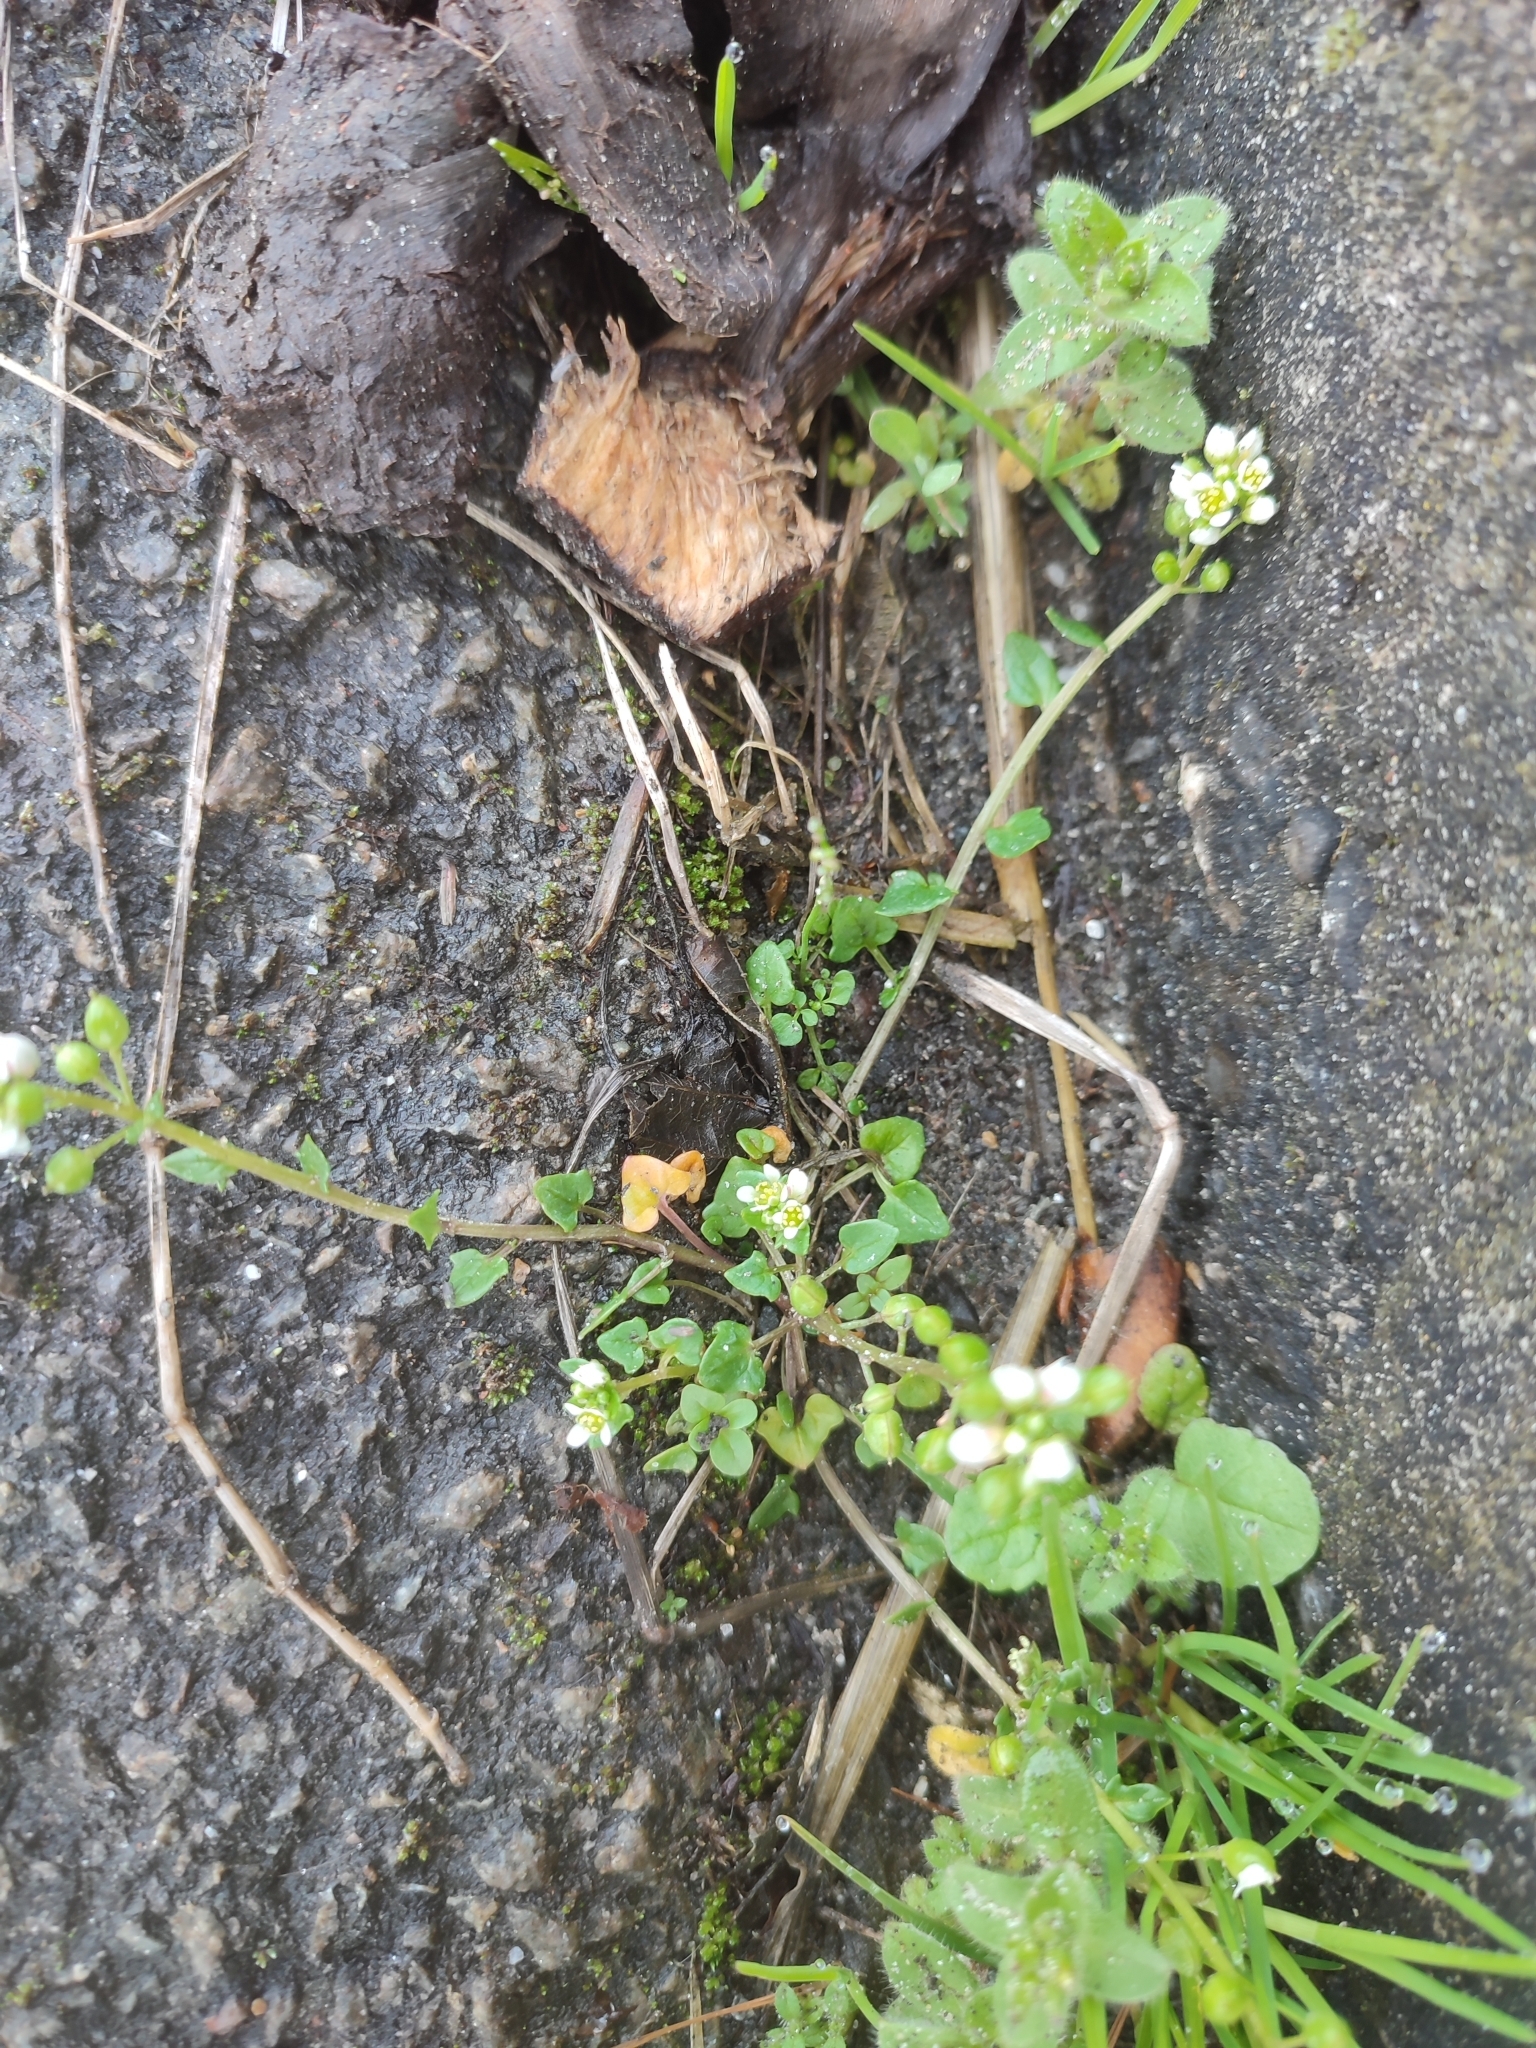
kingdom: Plantae
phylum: Tracheophyta
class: Magnoliopsida
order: Brassicales
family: Brassicaceae
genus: Cochlearia
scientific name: Cochlearia danica
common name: Early scurvygrass
